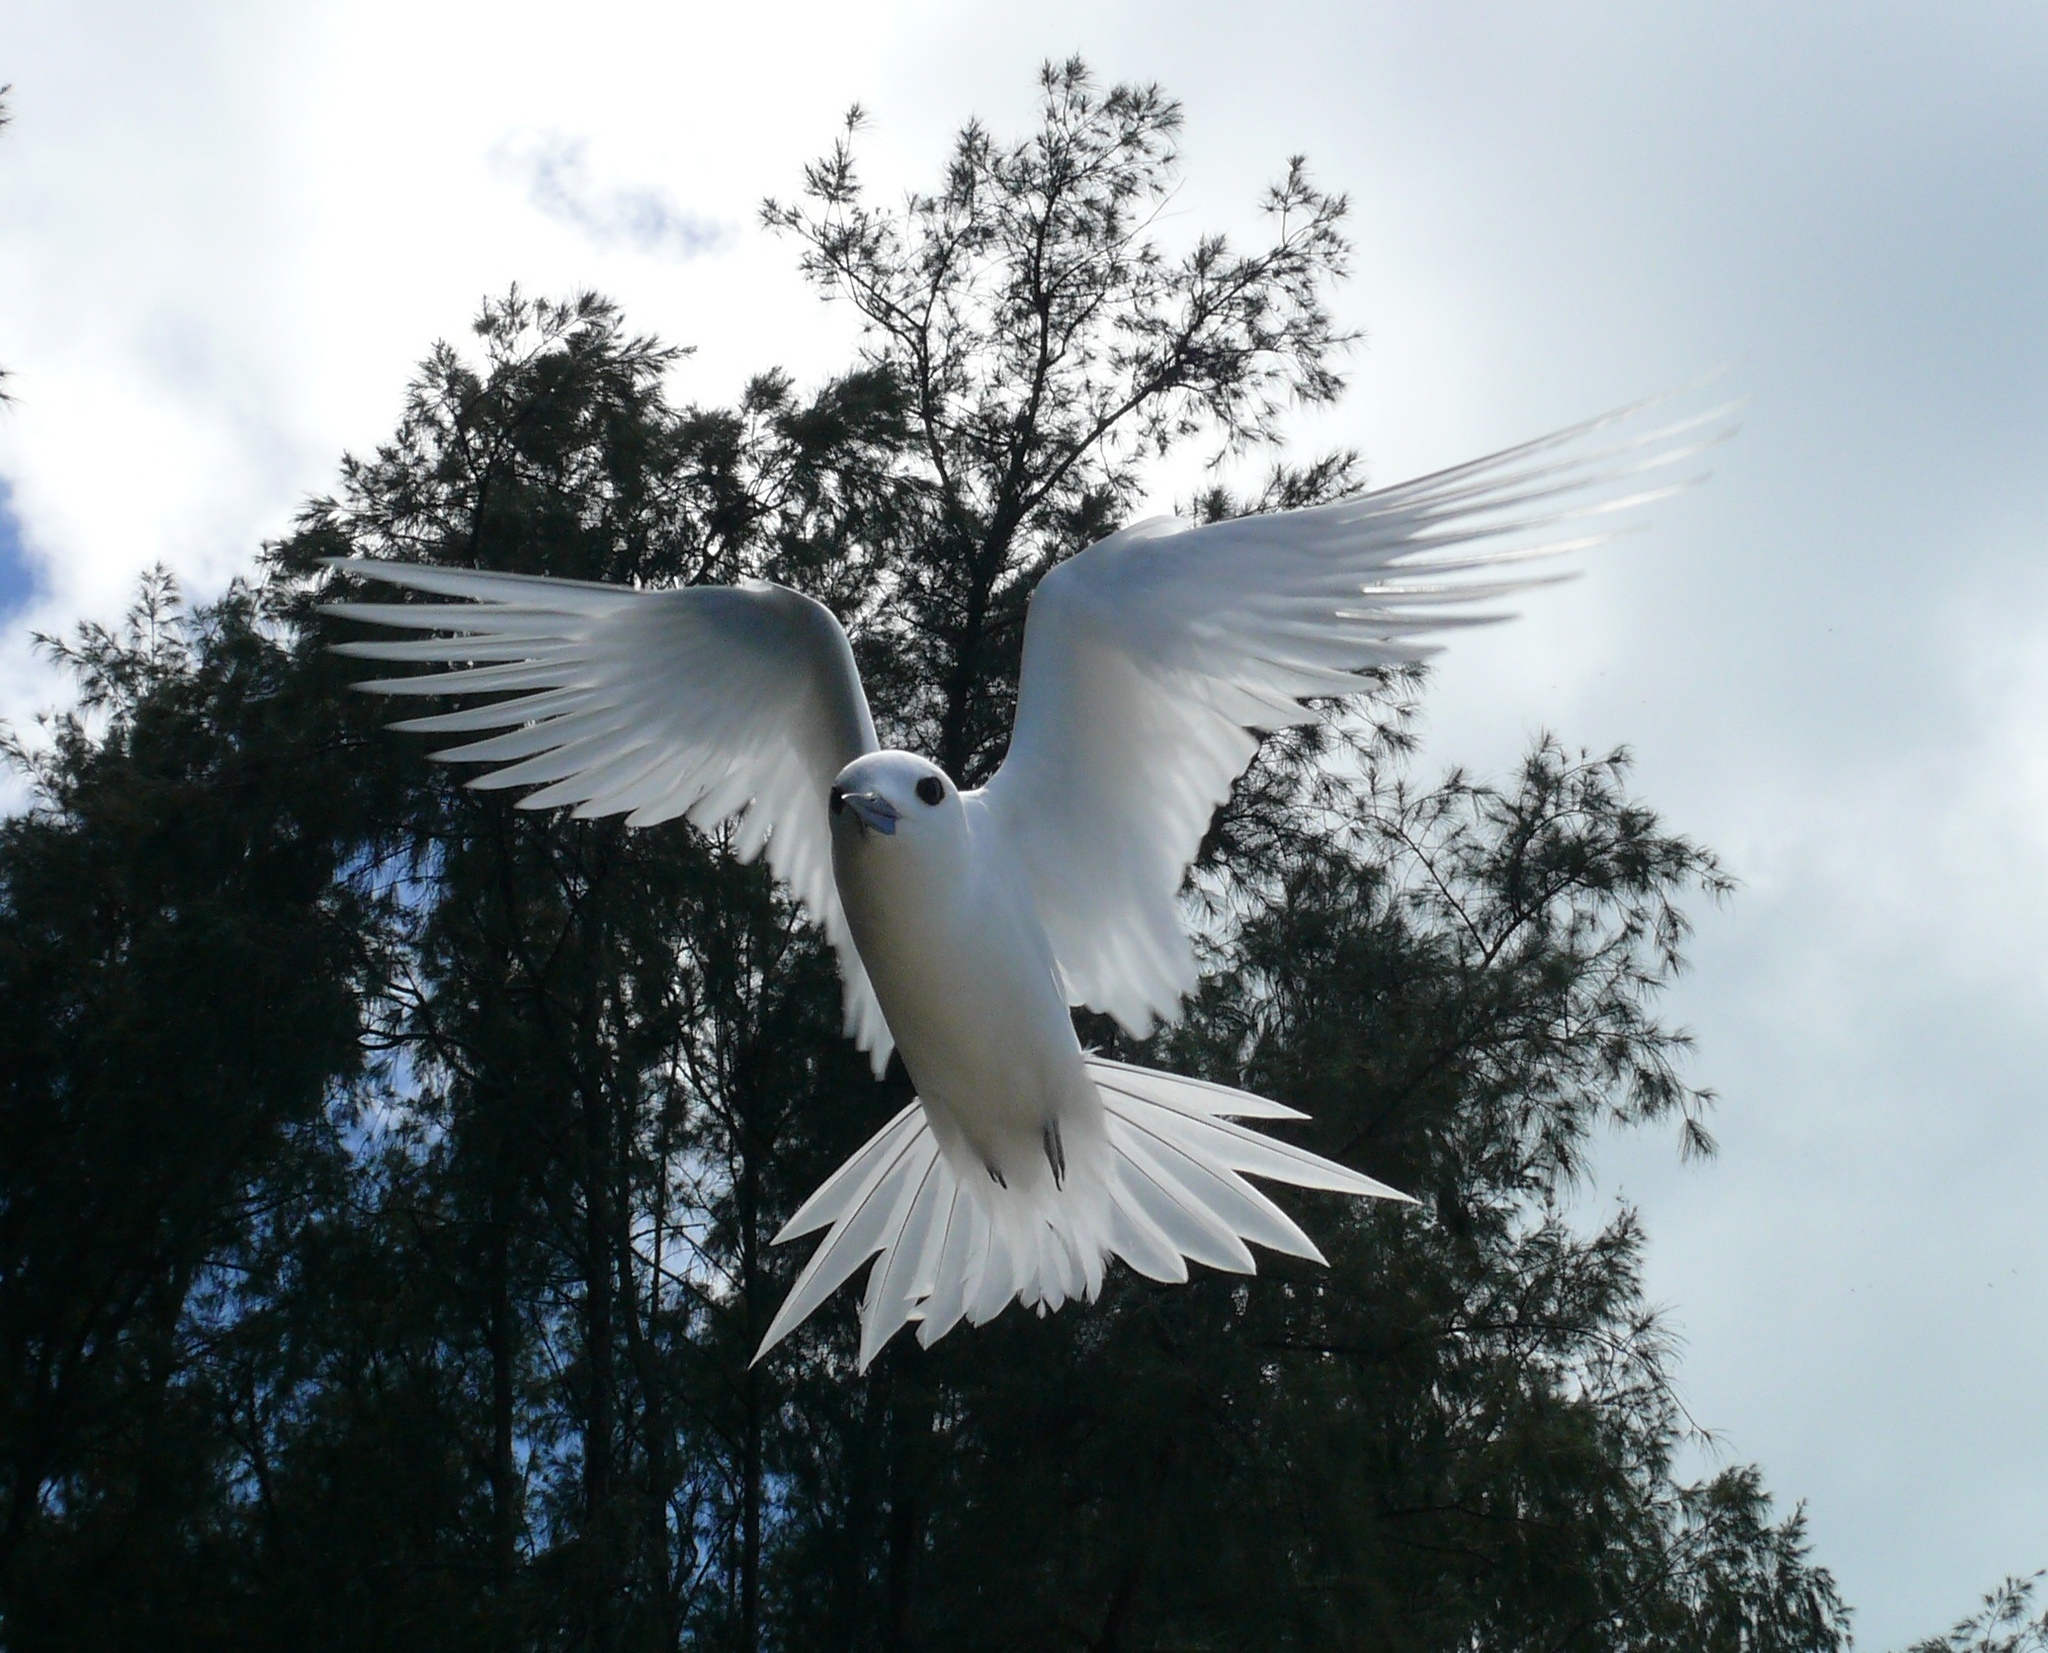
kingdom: Animalia
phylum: Chordata
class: Aves
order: Charadriiformes
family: Laridae
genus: Gygis
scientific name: Gygis alba
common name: White tern
